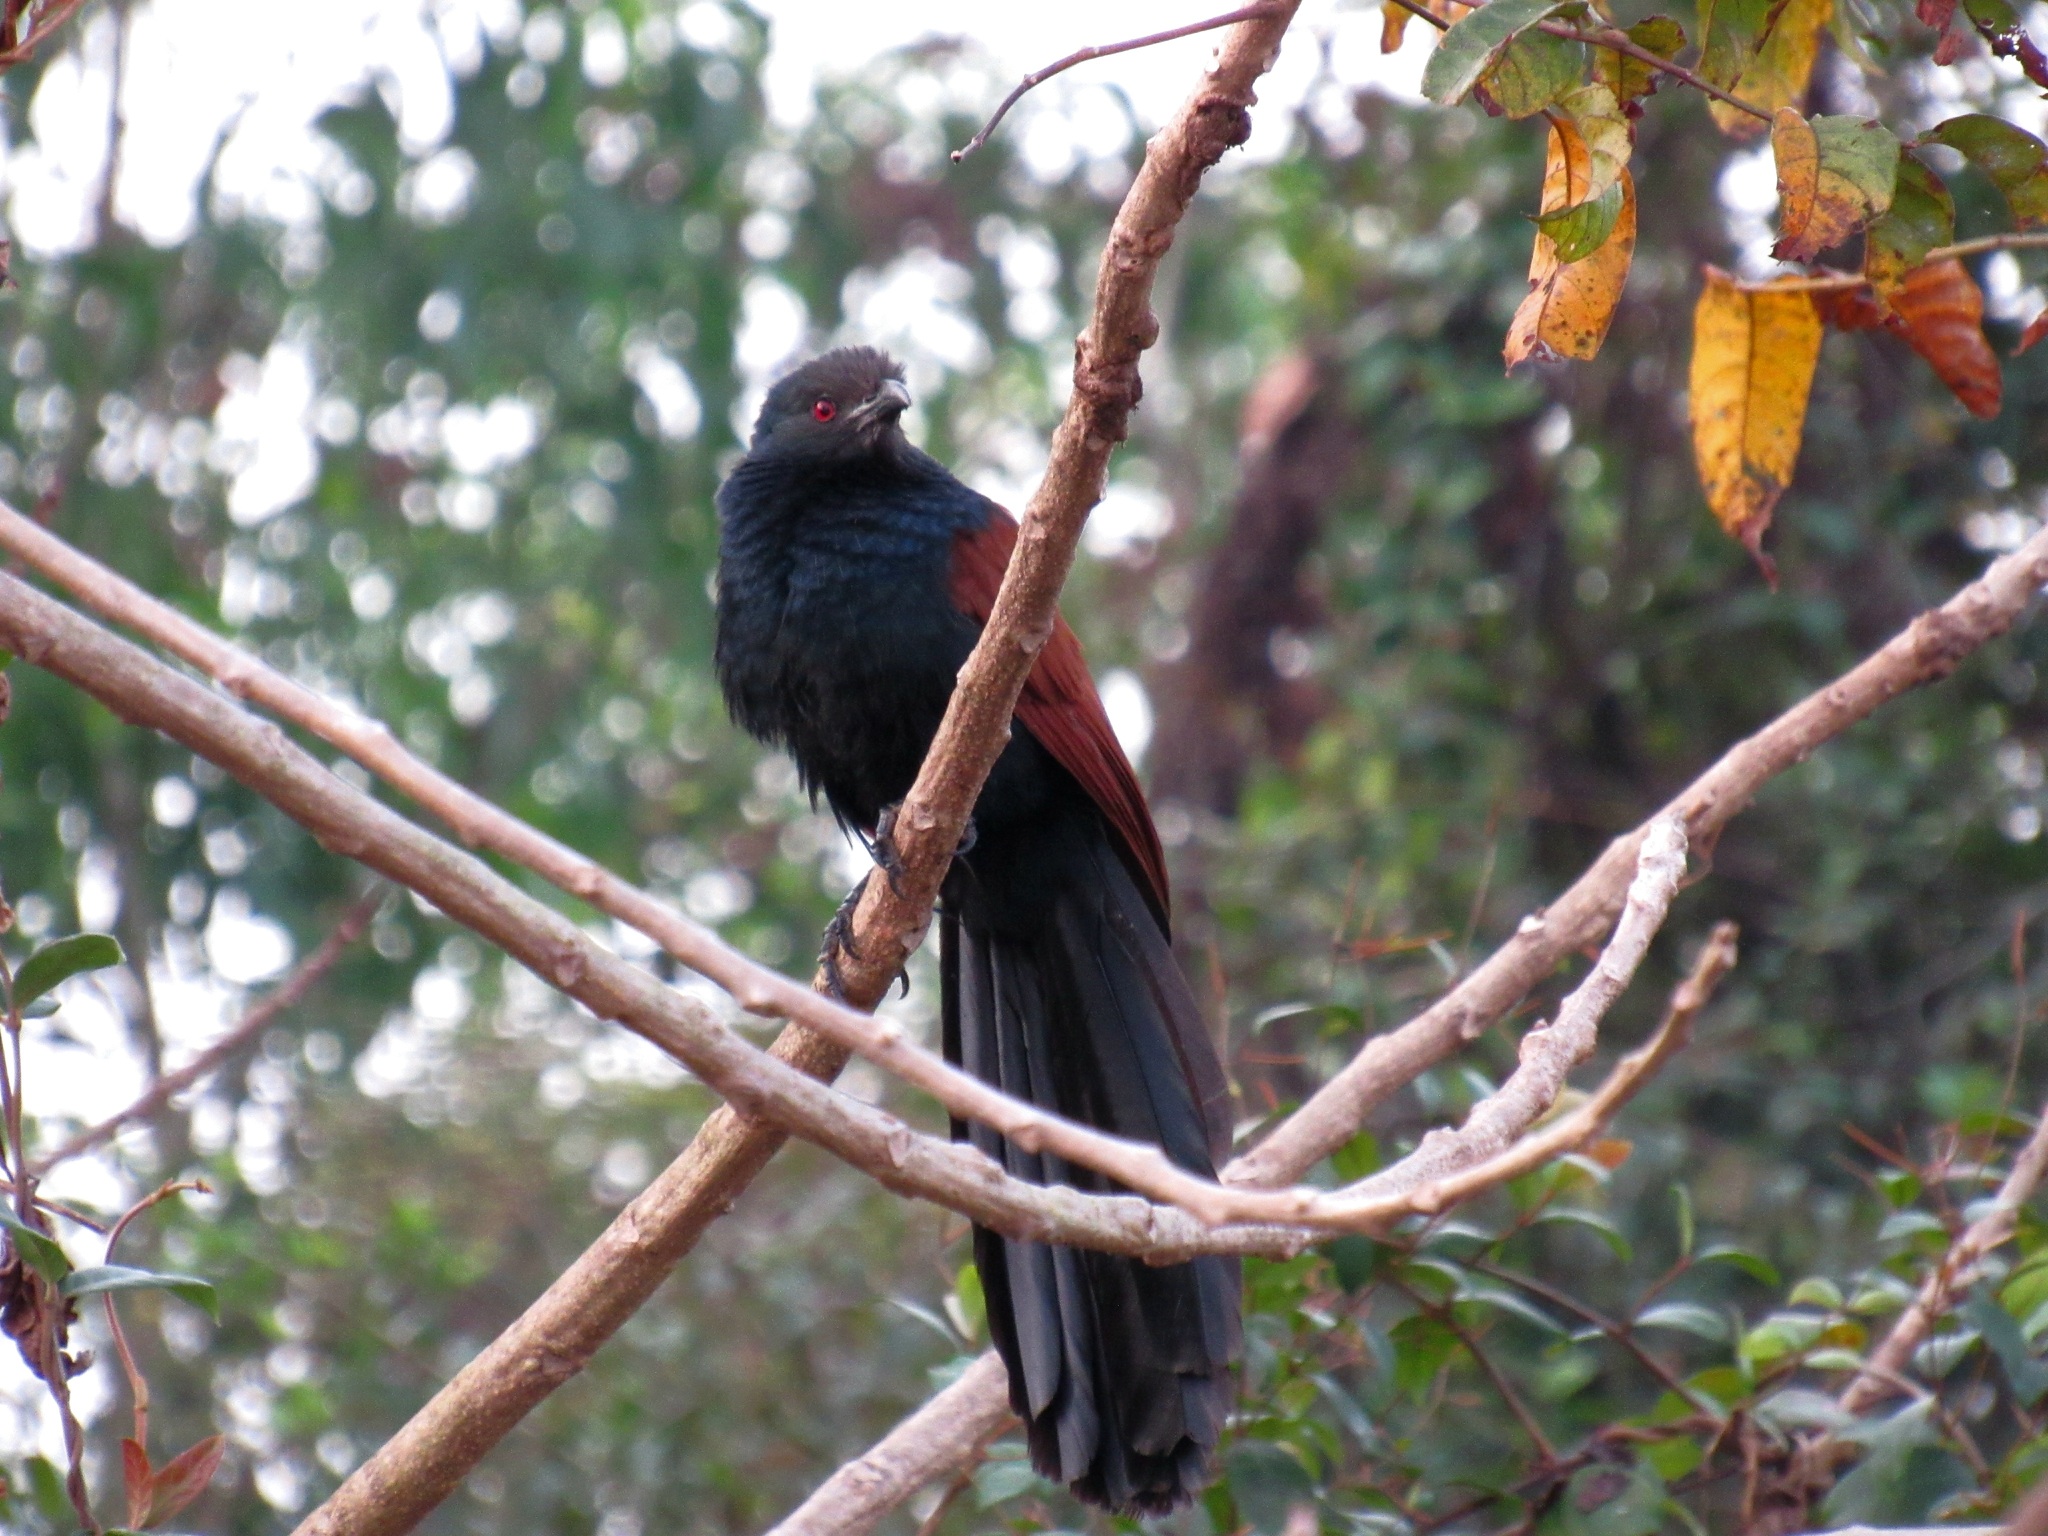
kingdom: Animalia
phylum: Chordata
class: Aves
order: Cuculiformes
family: Cuculidae
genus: Centropus
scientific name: Centropus sinensis
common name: Greater coucal
